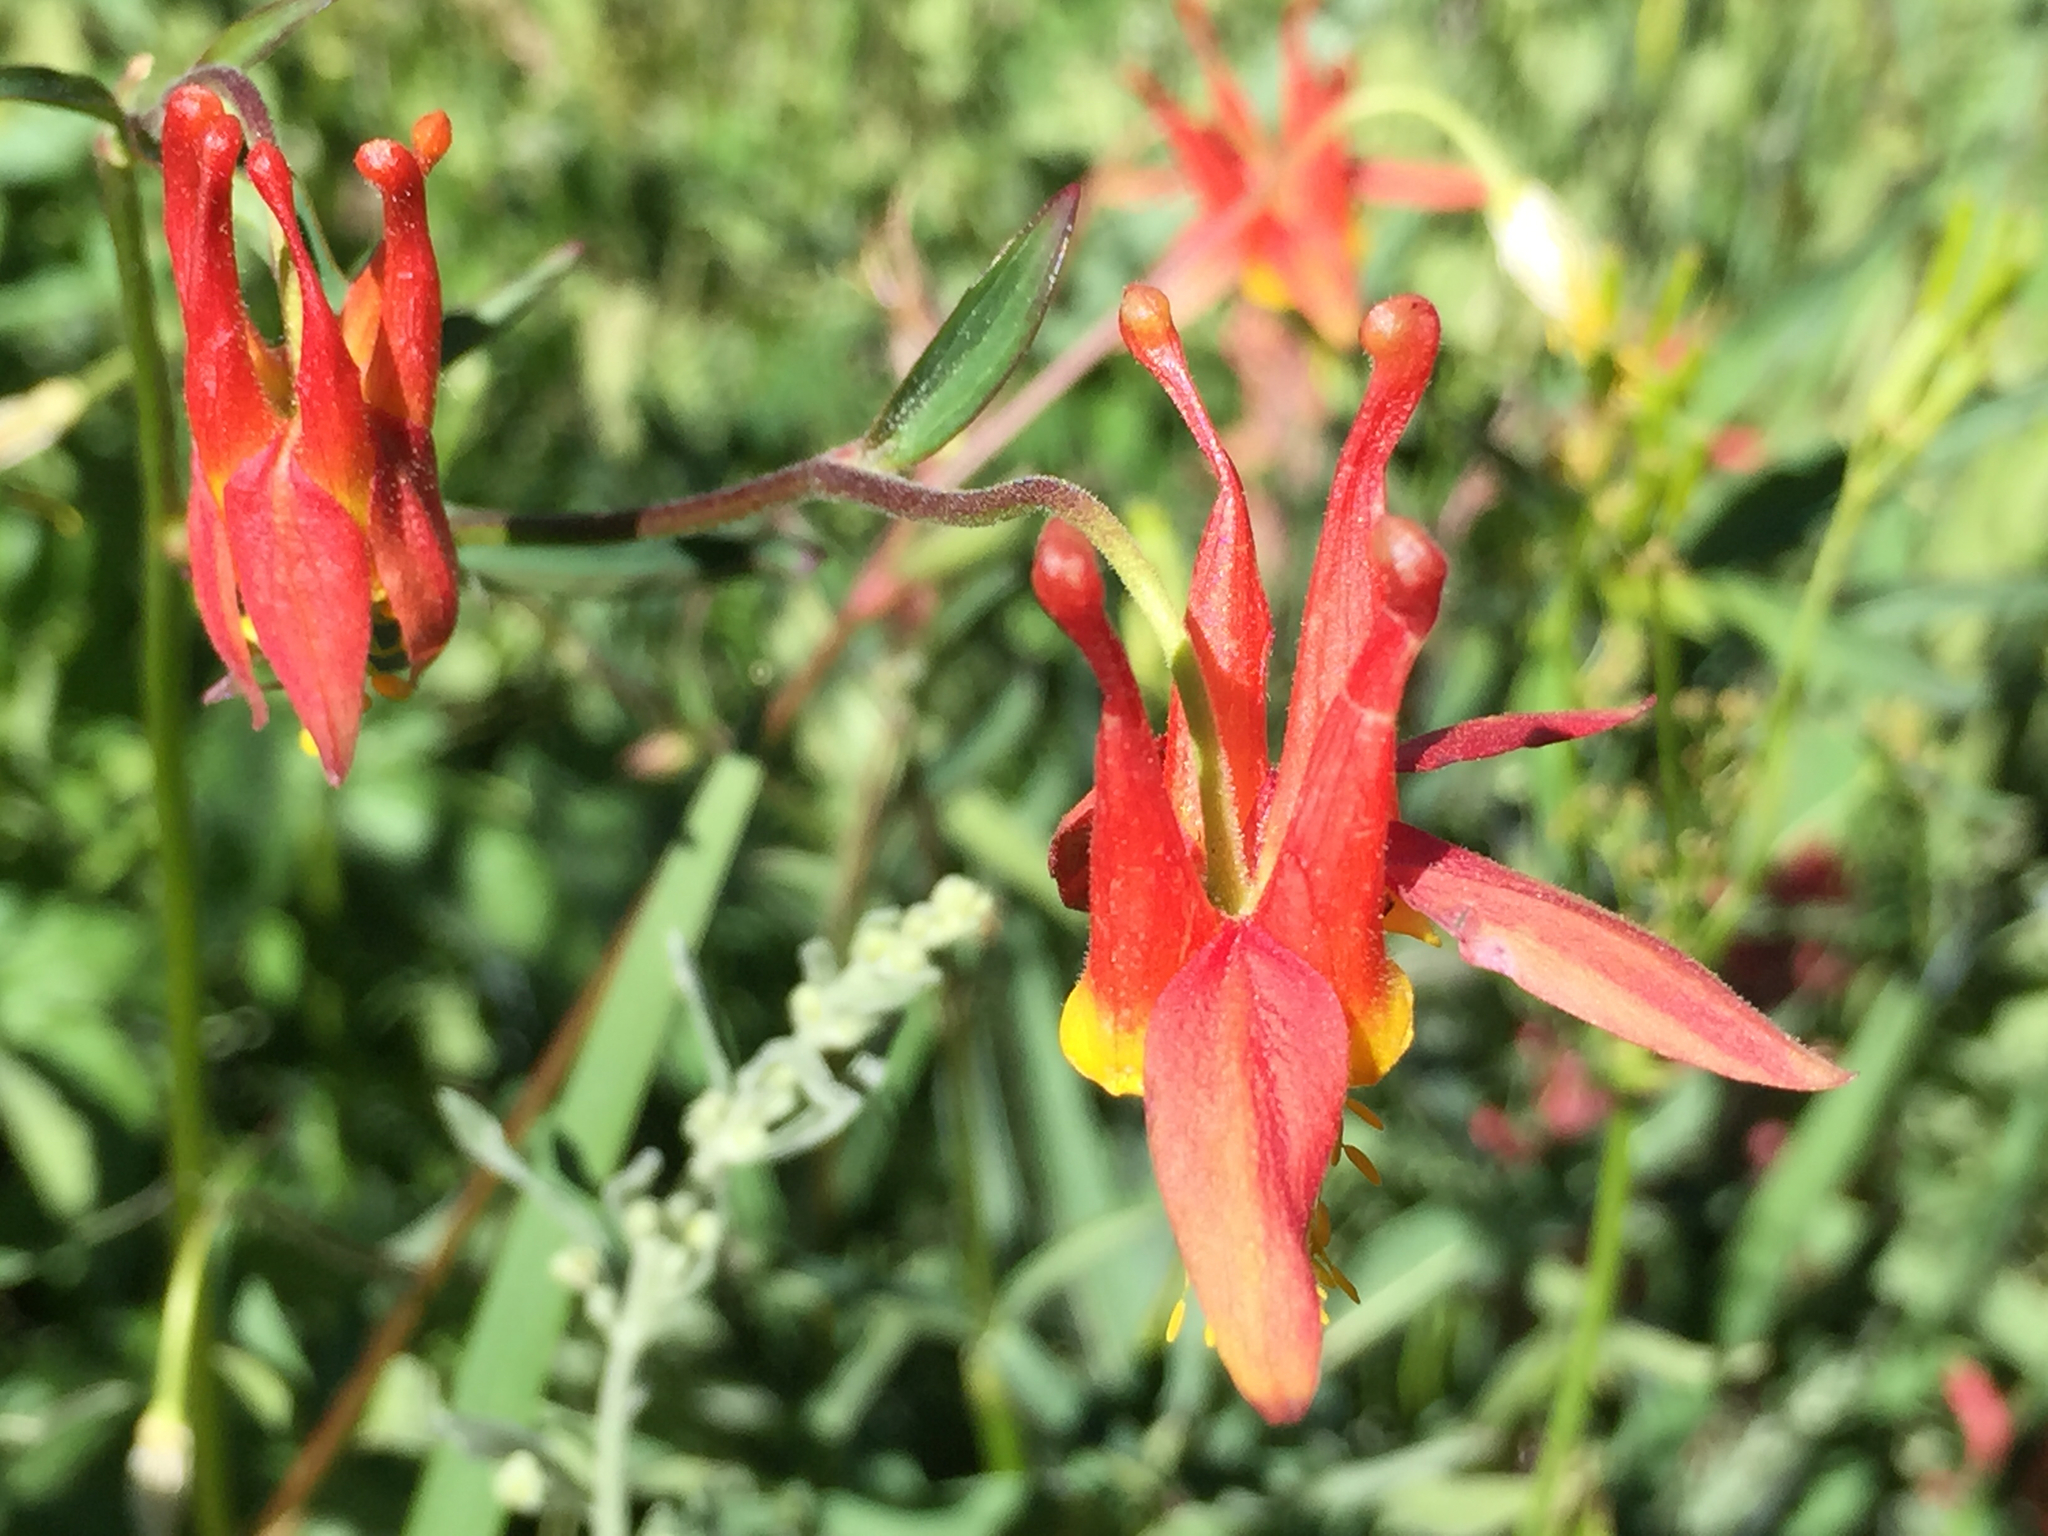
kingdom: Plantae
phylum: Tracheophyta
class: Magnoliopsida
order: Ranunculales
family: Ranunculaceae
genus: Aquilegia
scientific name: Aquilegia formosa
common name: Sitka columbine
